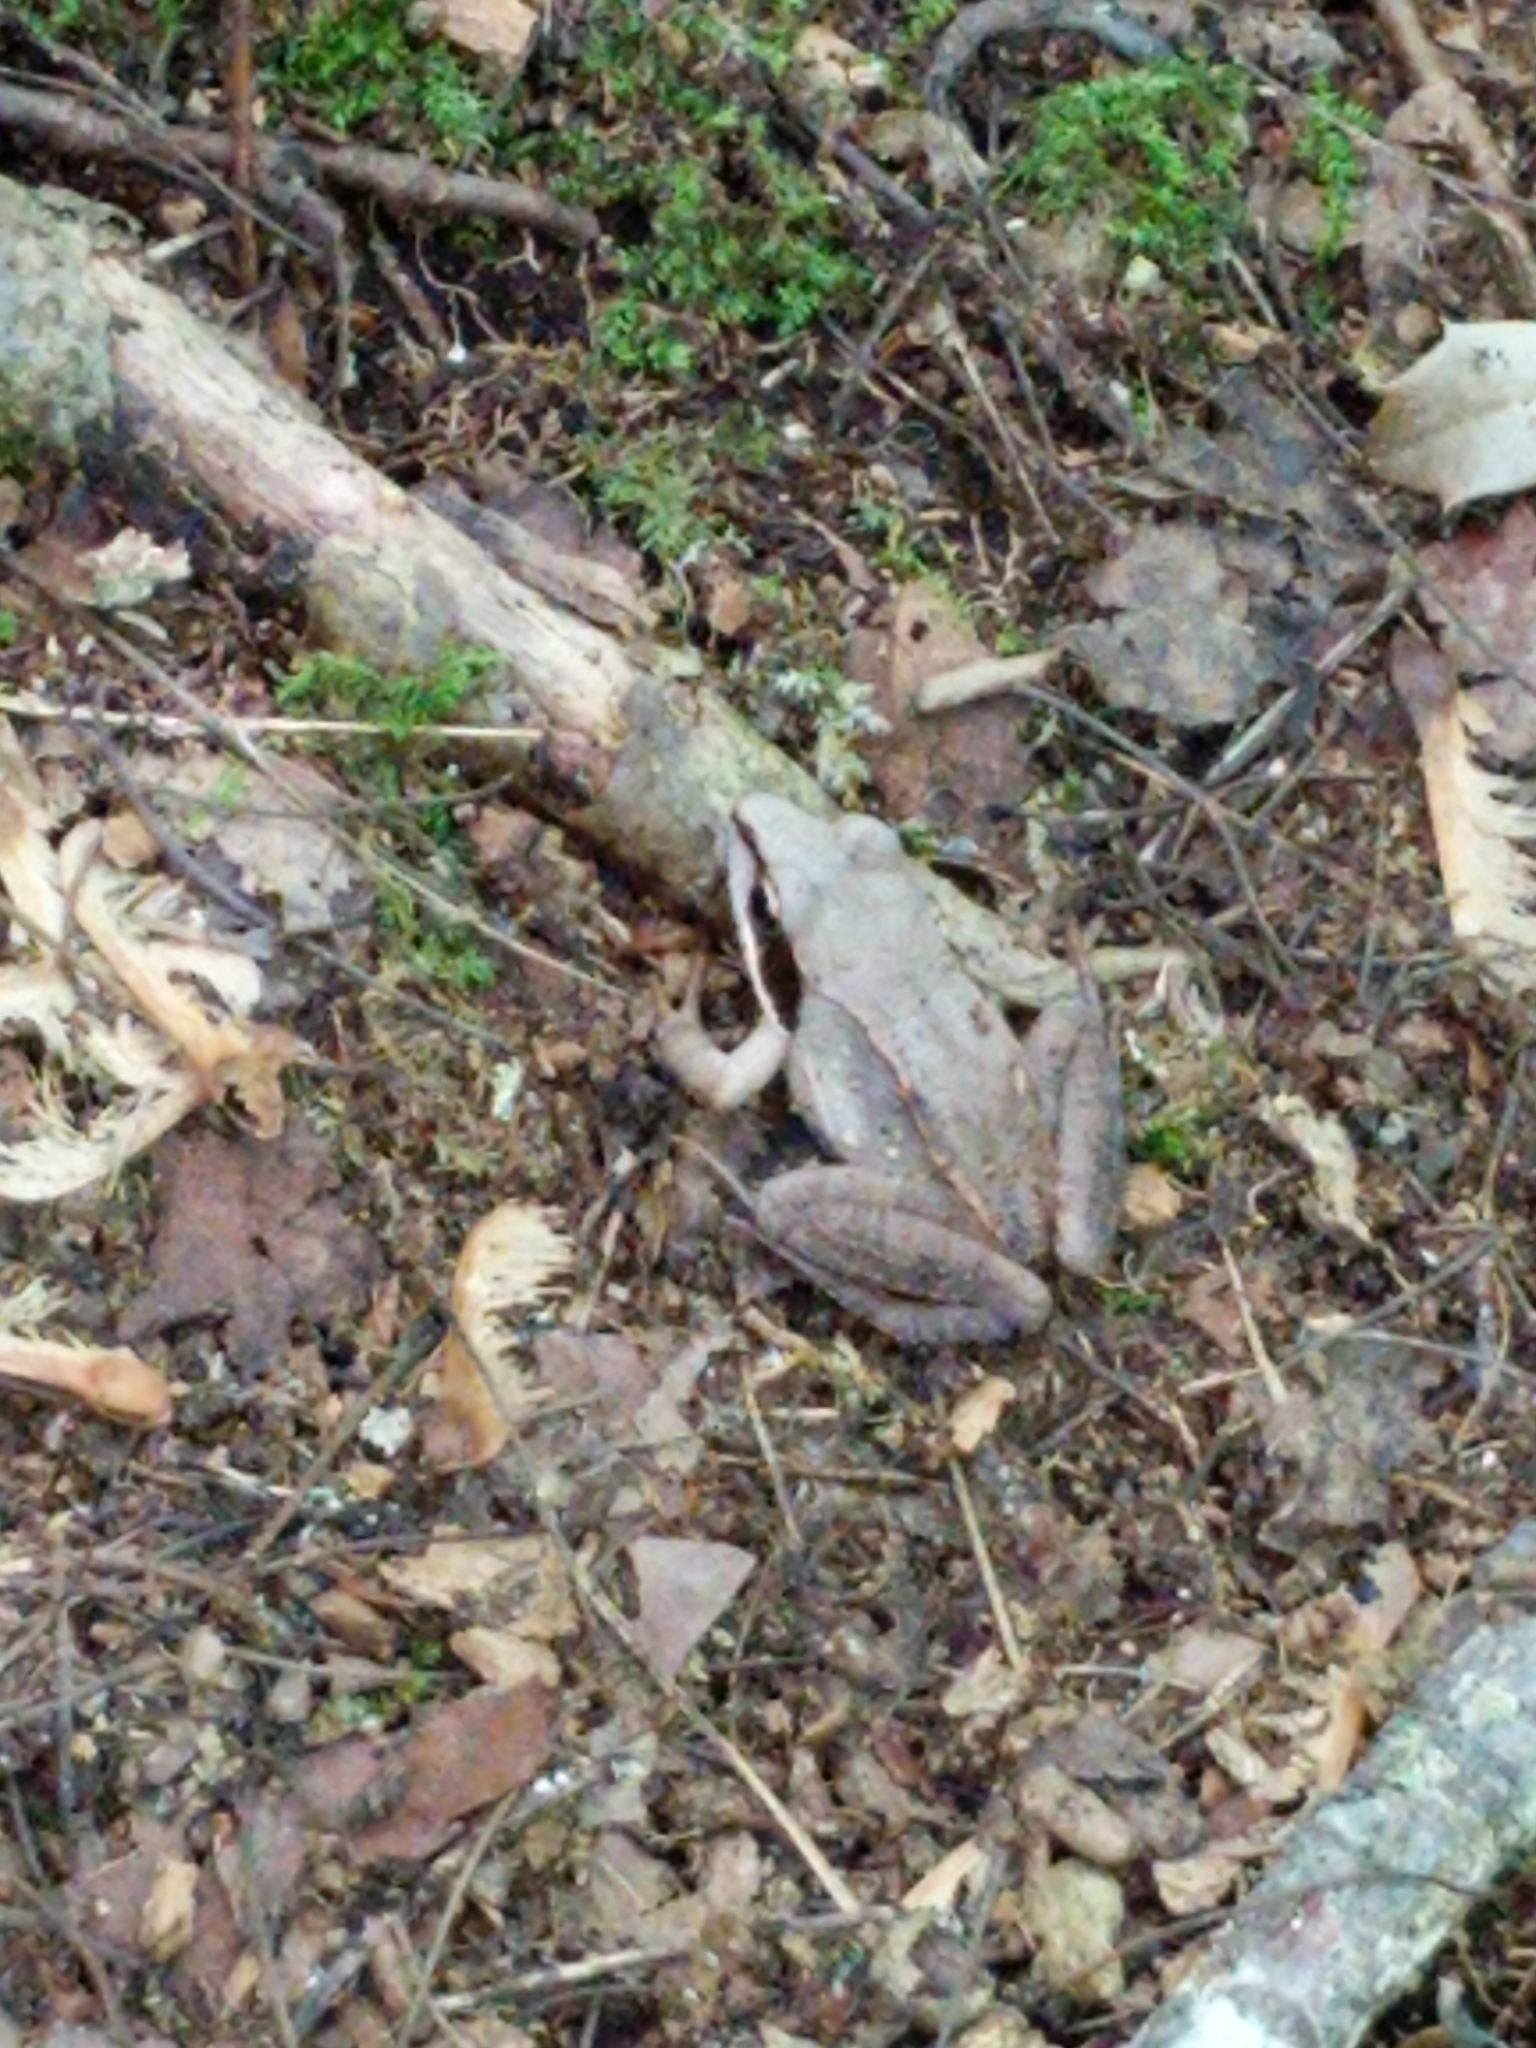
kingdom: Animalia
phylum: Chordata
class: Amphibia
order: Anura
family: Ranidae
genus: Lithobates
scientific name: Lithobates sylvaticus
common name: Wood frog
